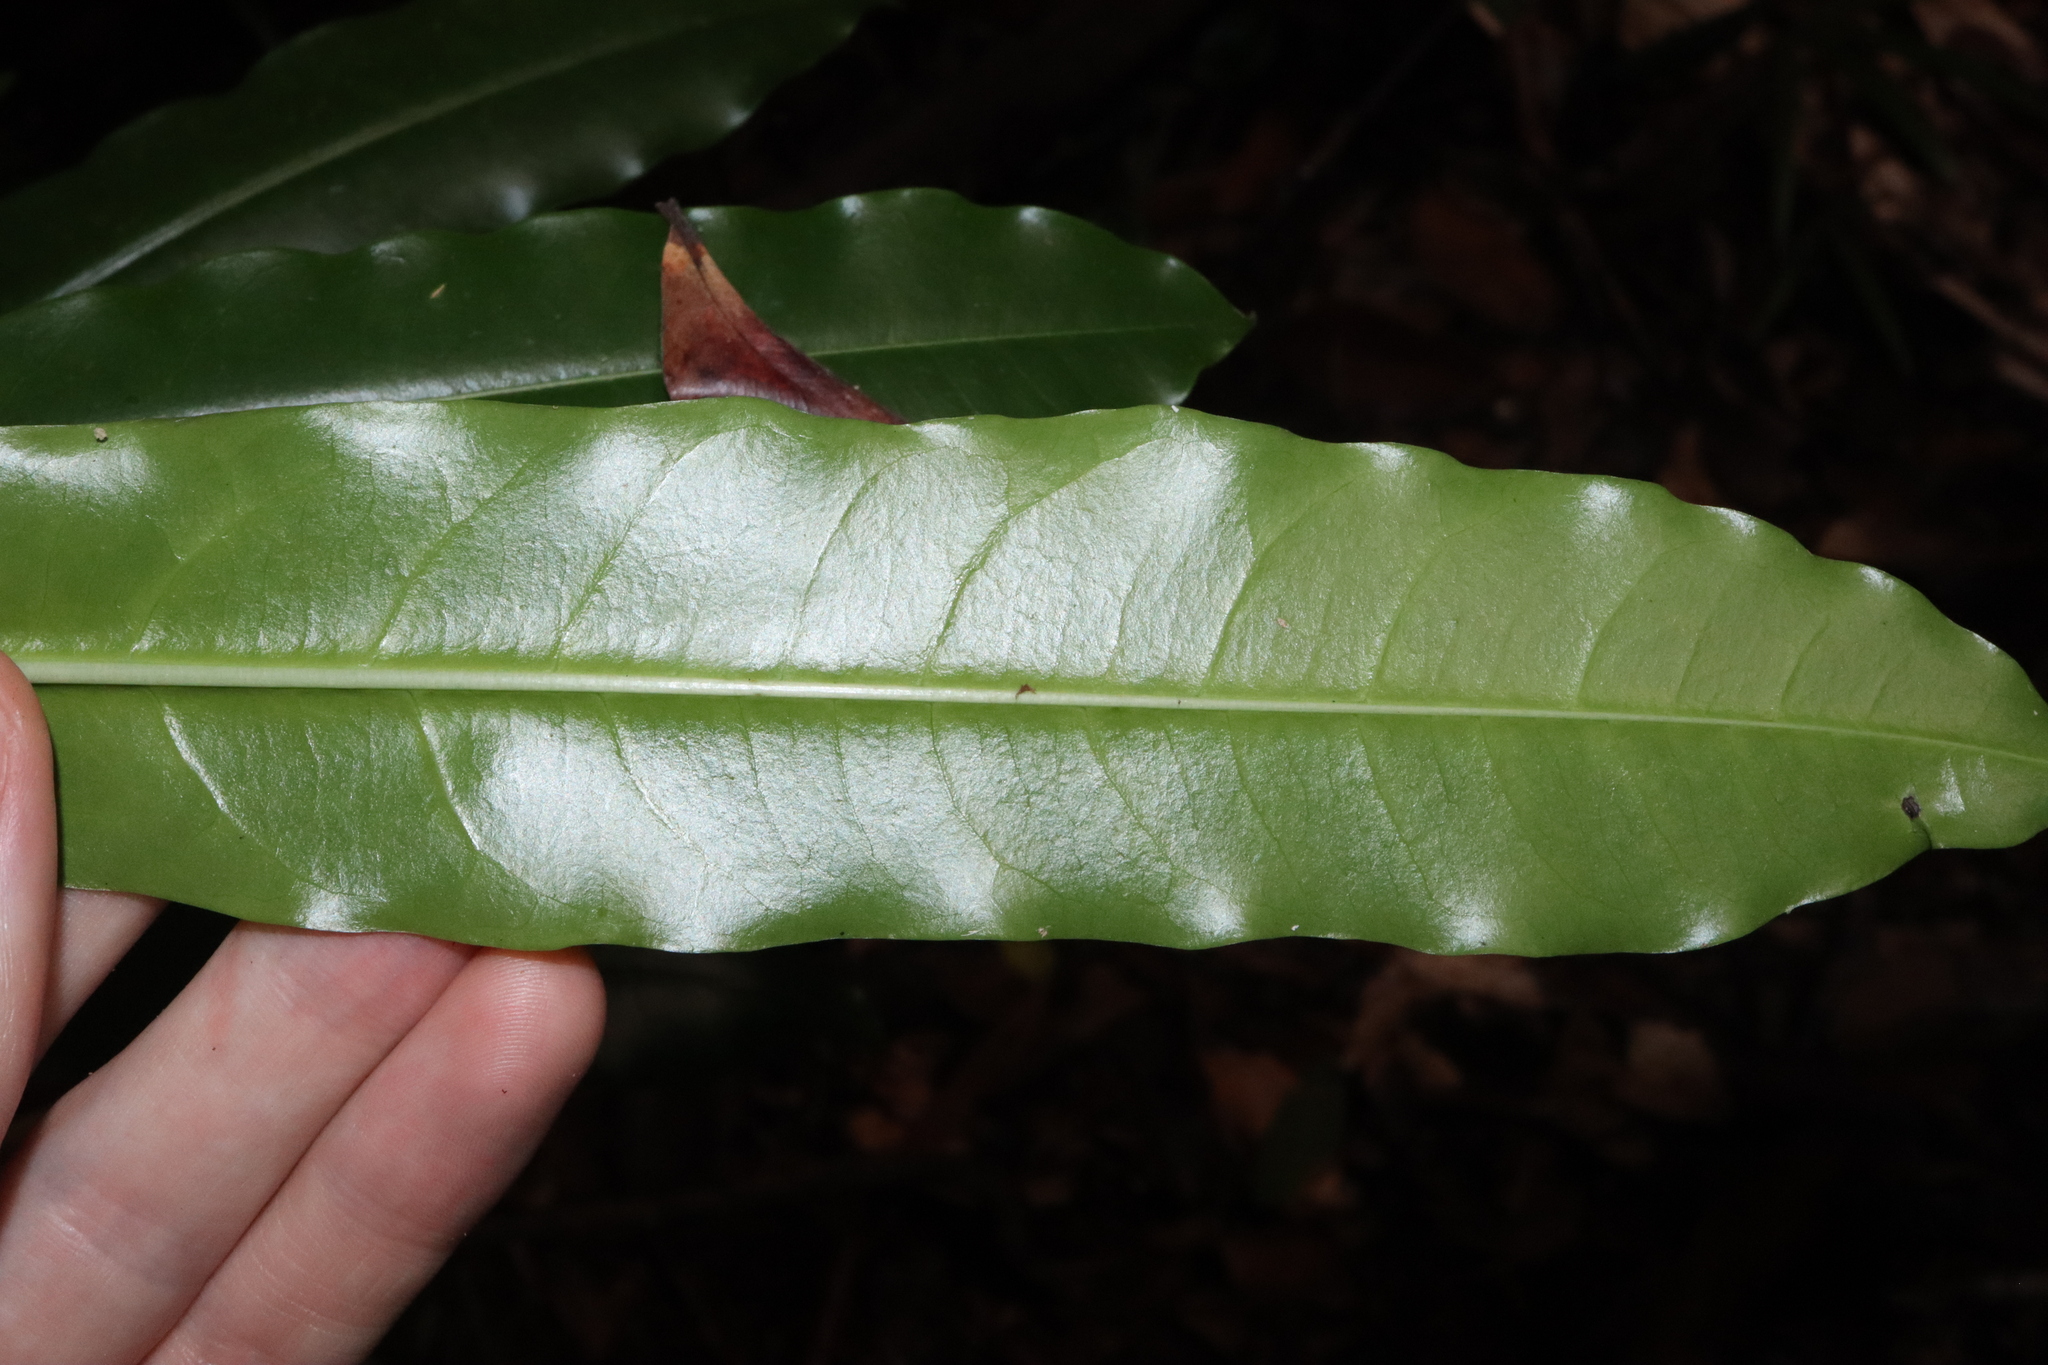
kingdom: Plantae
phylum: Tracheophyta
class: Magnoliopsida
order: Gentianales
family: Apocynaceae
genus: Cerbera
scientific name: Cerbera floribunda
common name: Cassowary plumtree
